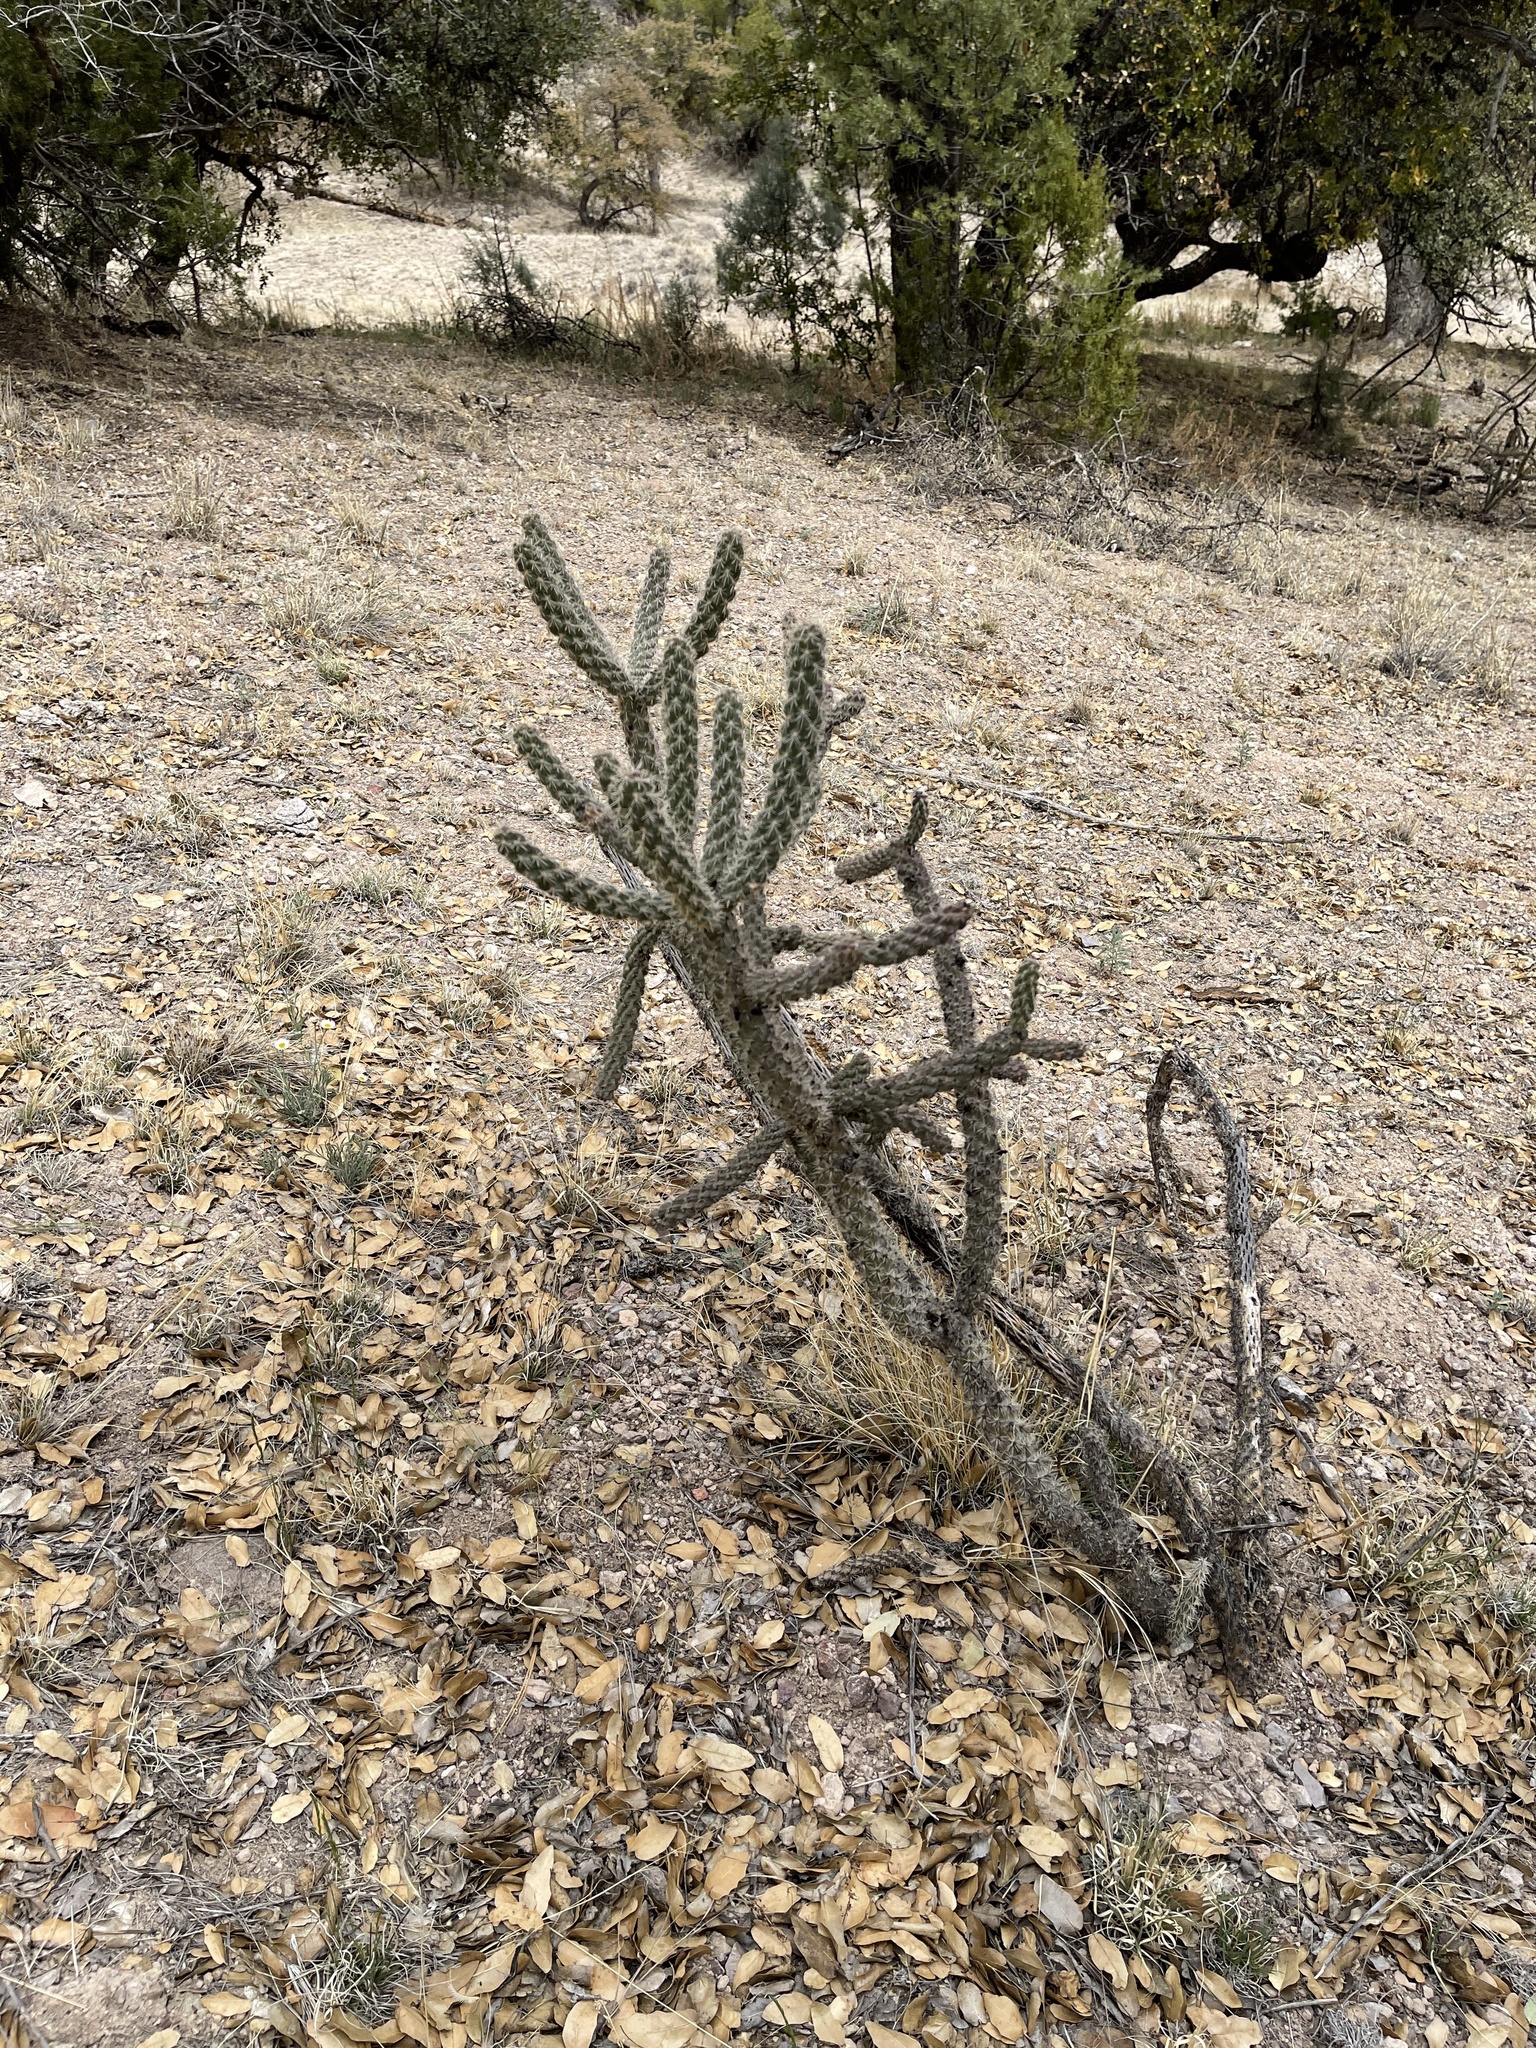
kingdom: Plantae
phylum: Tracheophyta
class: Magnoliopsida
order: Caryophyllales
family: Cactaceae
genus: Cylindropuntia
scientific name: Cylindropuntia imbricata
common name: Candelabrum cactus
